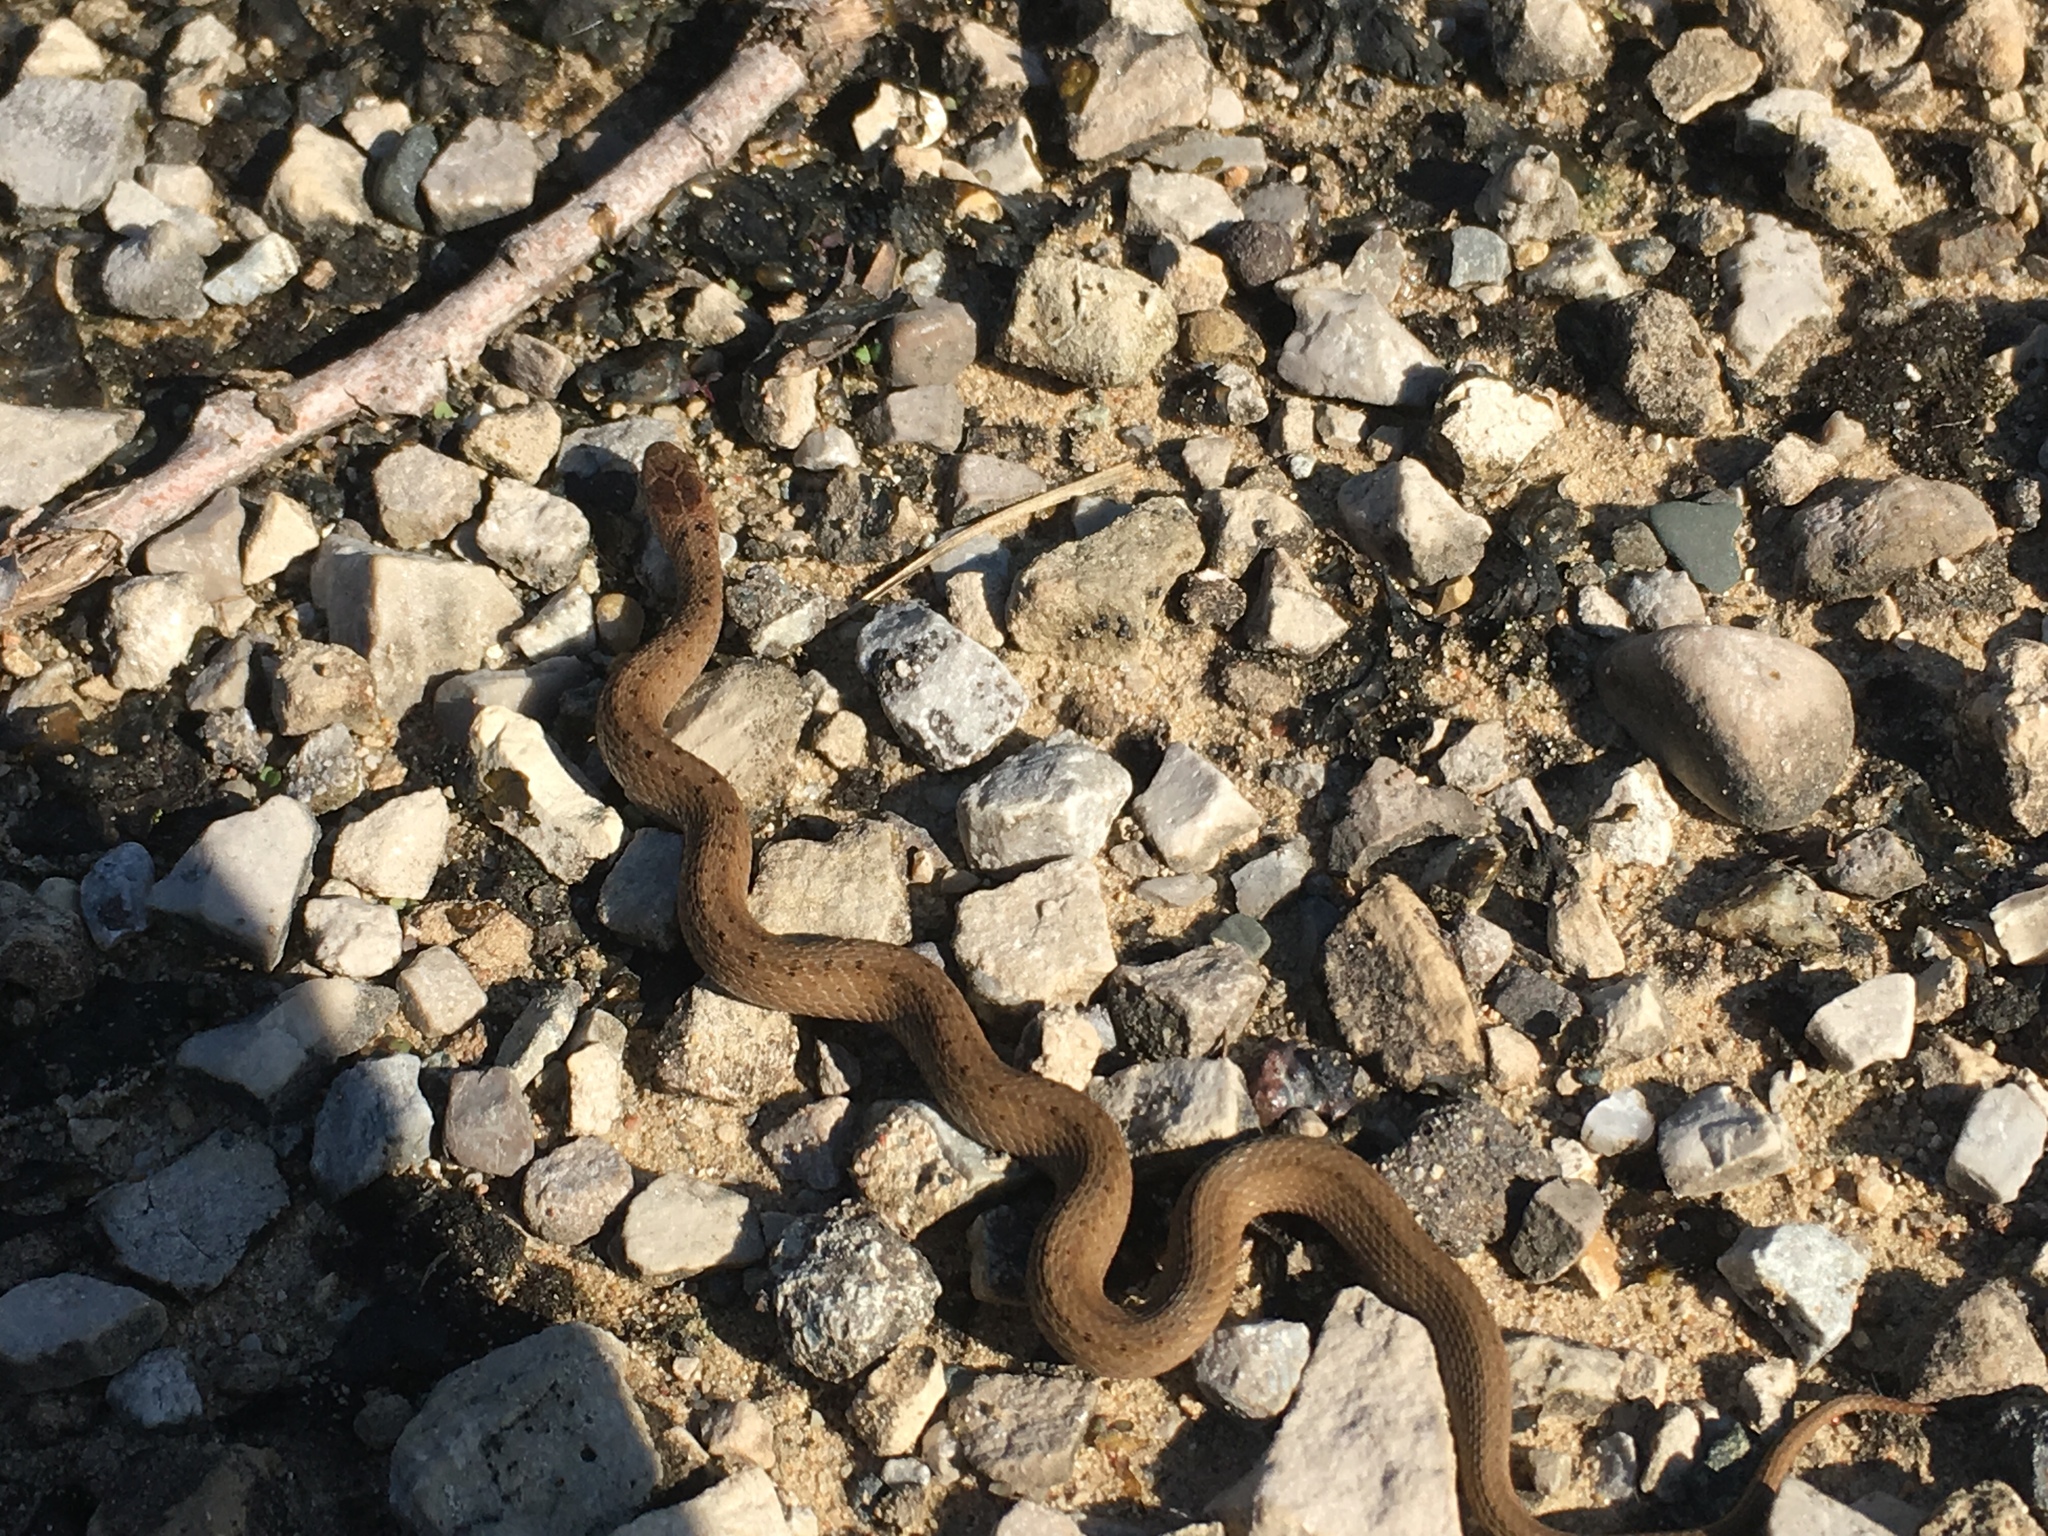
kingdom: Animalia
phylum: Chordata
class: Squamata
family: Colubridae
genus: Storeria
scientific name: Storeria dekayi
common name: (dekay’s) brown snake
